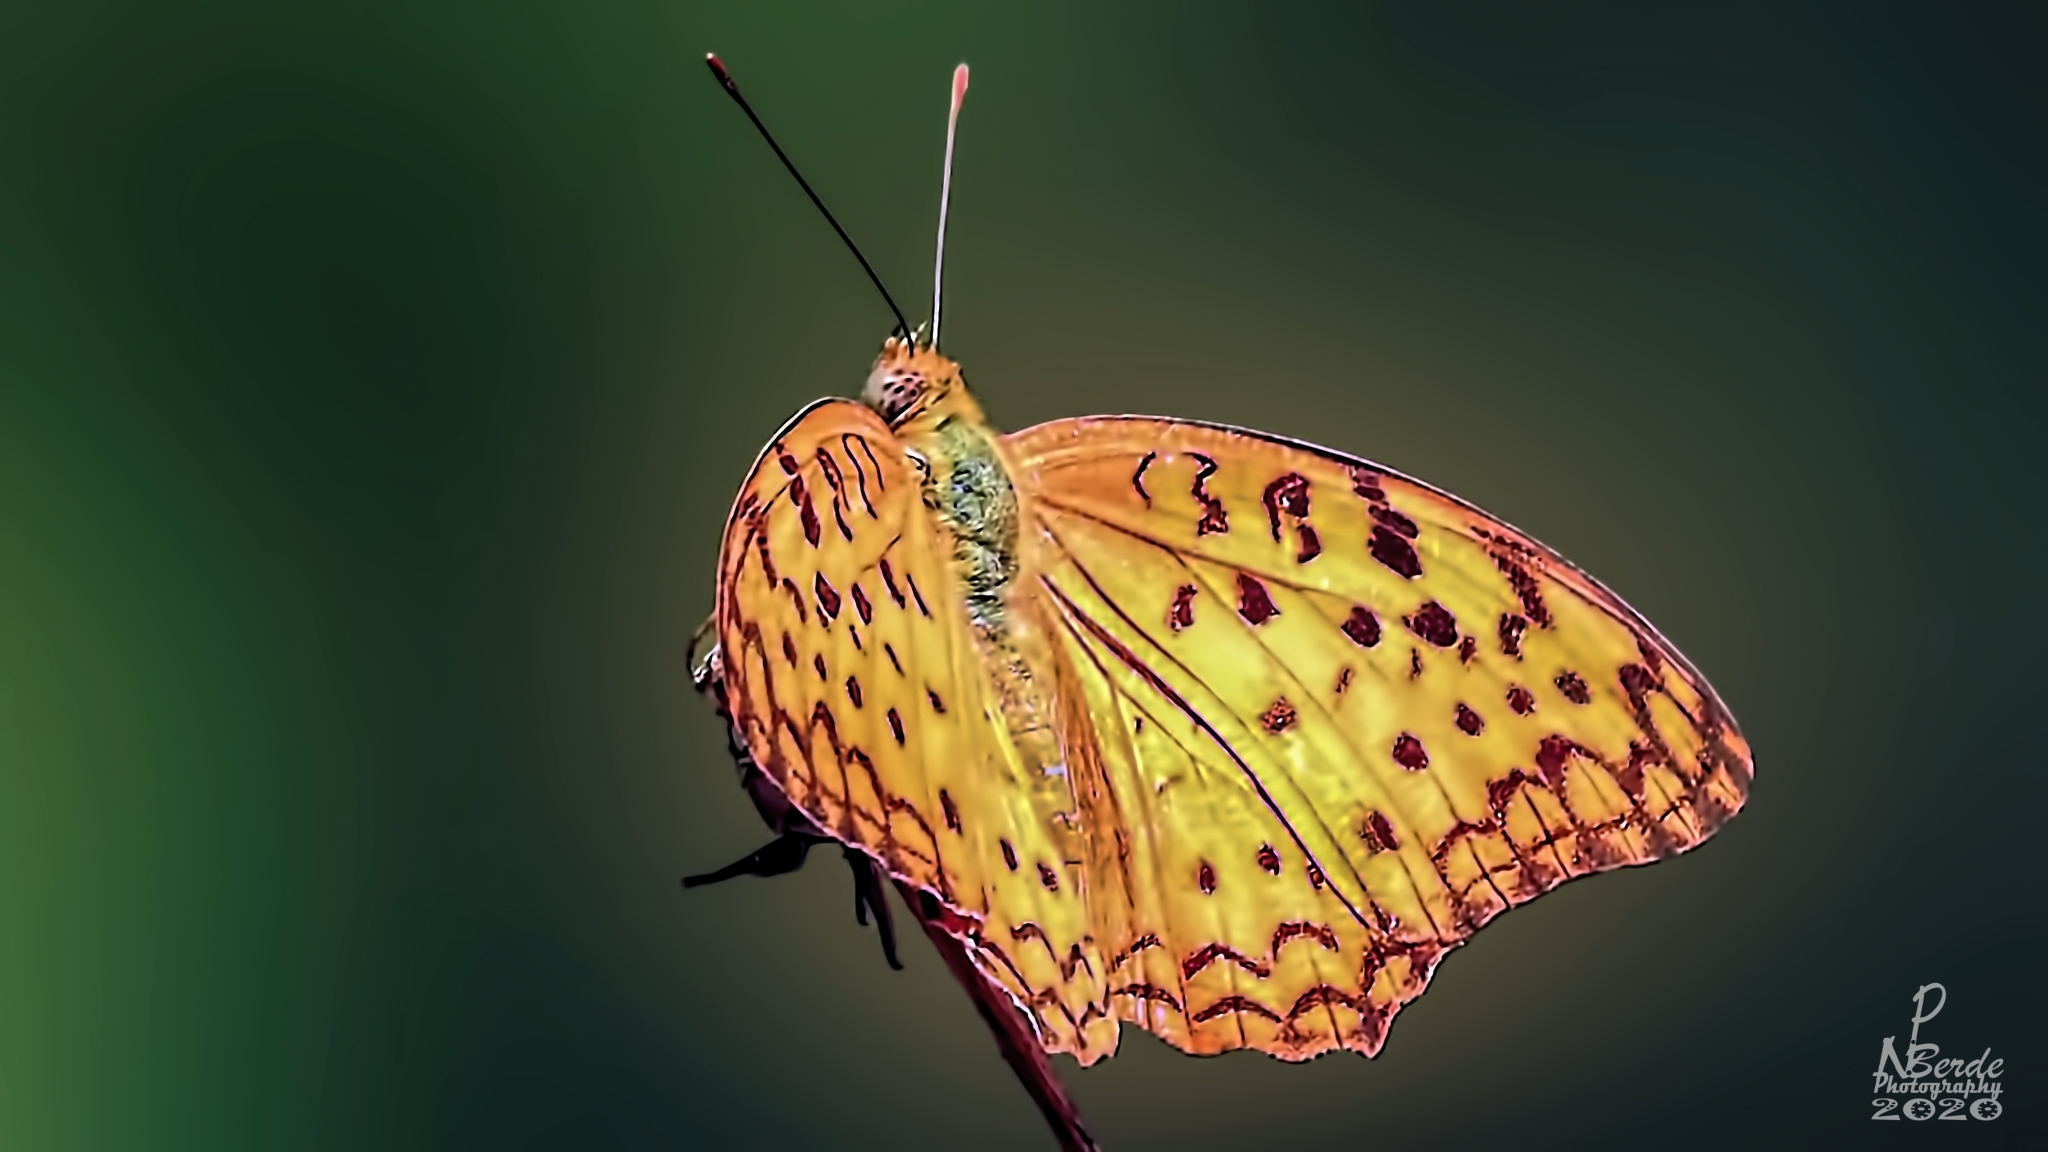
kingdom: Animalia
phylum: Arthropoda
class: Insecta
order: Lepidoptera
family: Nymphalidae
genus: Phalanta
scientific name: Phalanta phalantha
